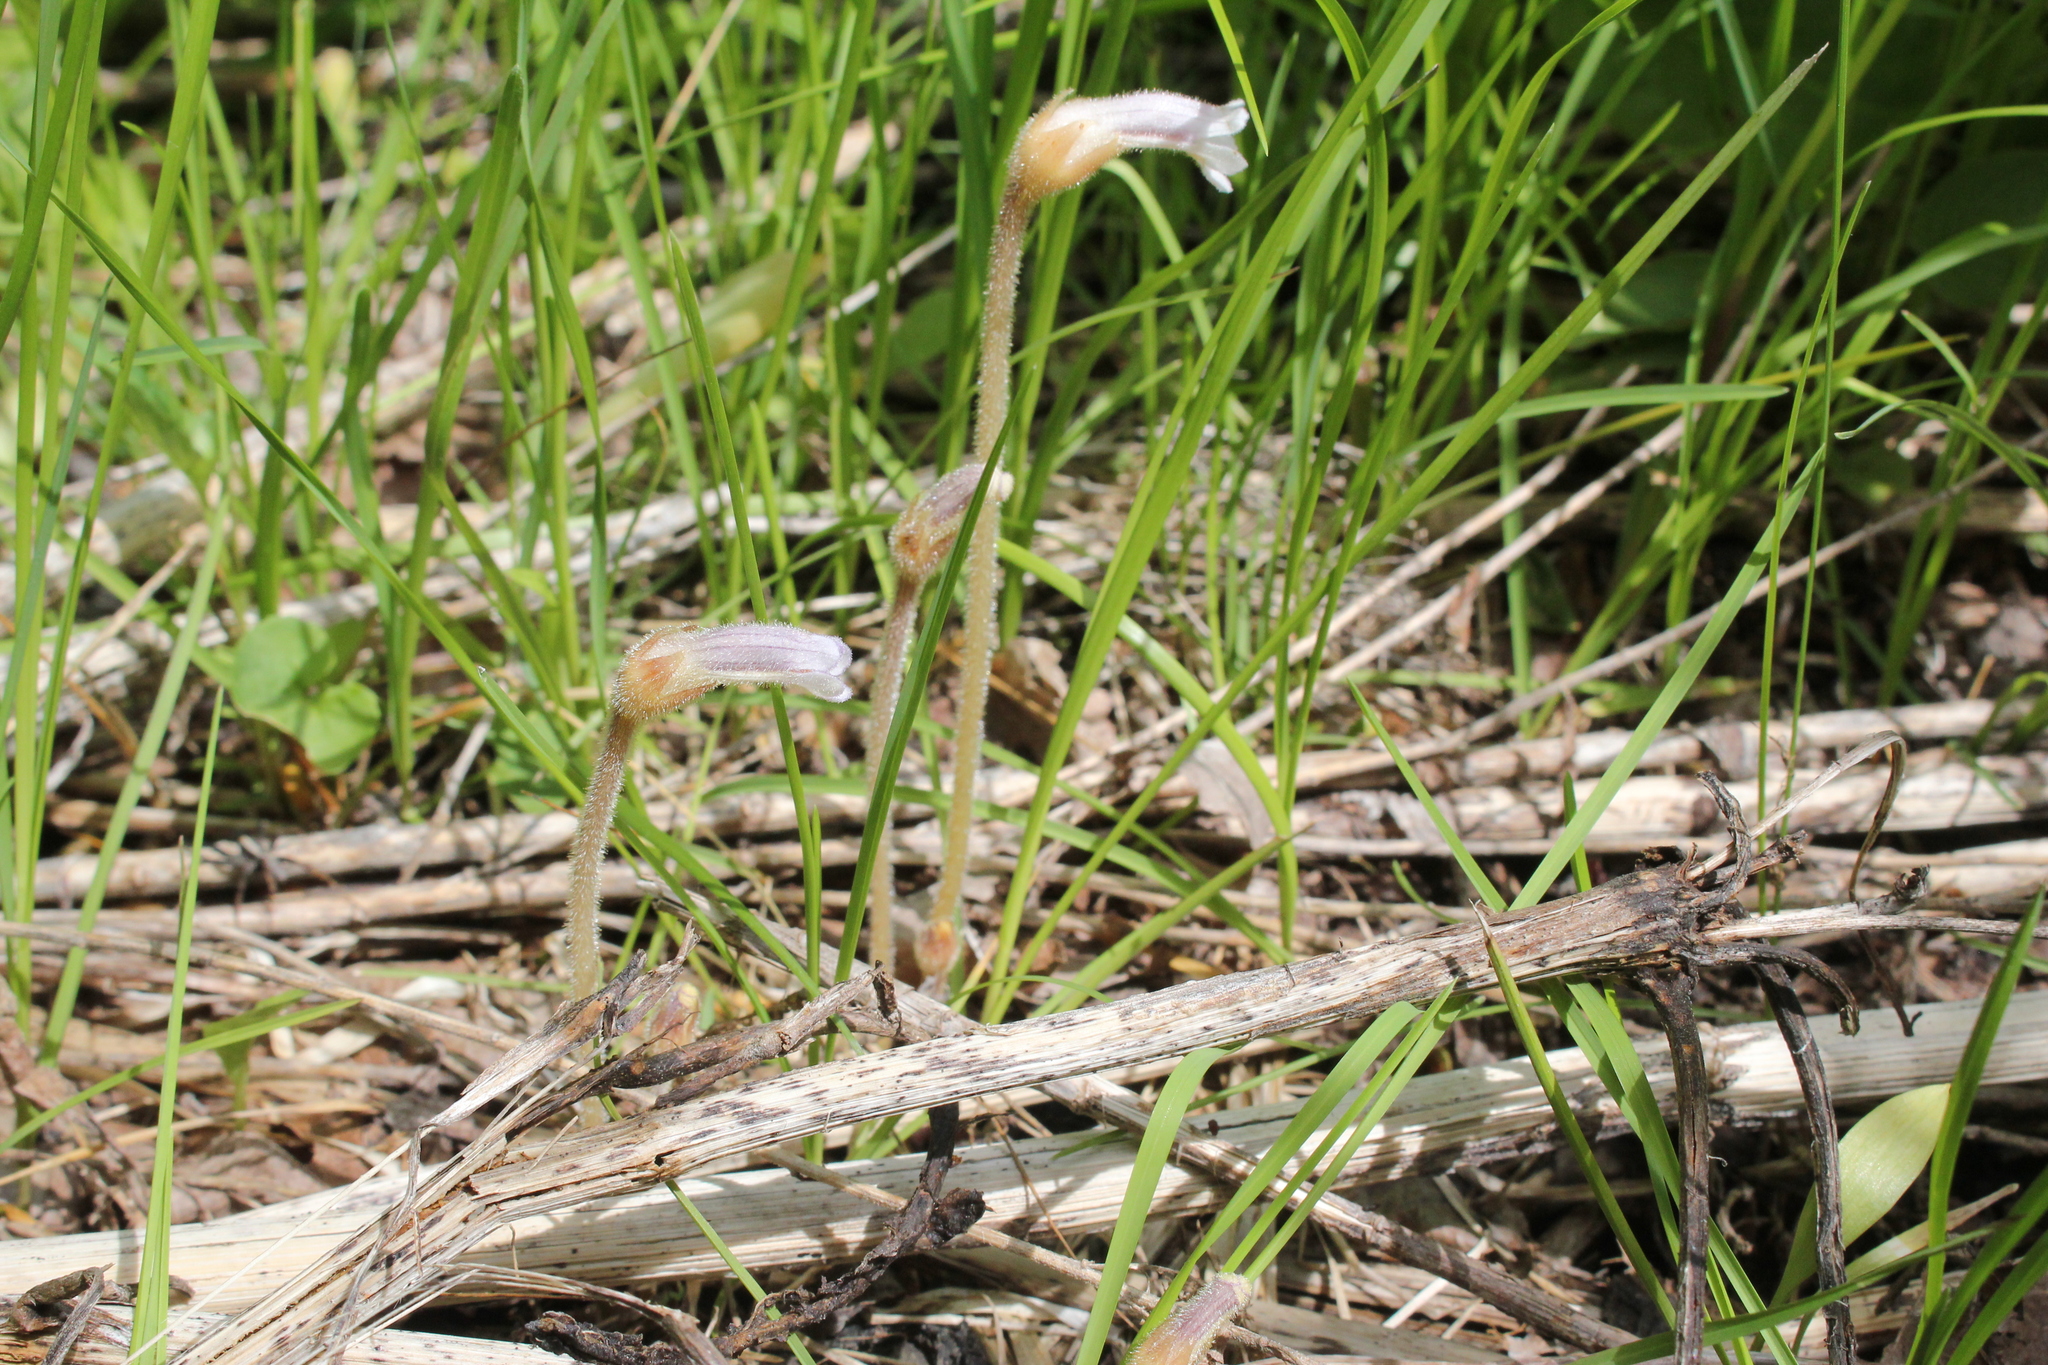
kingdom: Plantae
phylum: Tracheophyta
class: Magnoliopsida
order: Lamiales
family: Orobanchaceae
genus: Aphyllon
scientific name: Aphyllon uniflorum
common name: One-flowered broomrape
